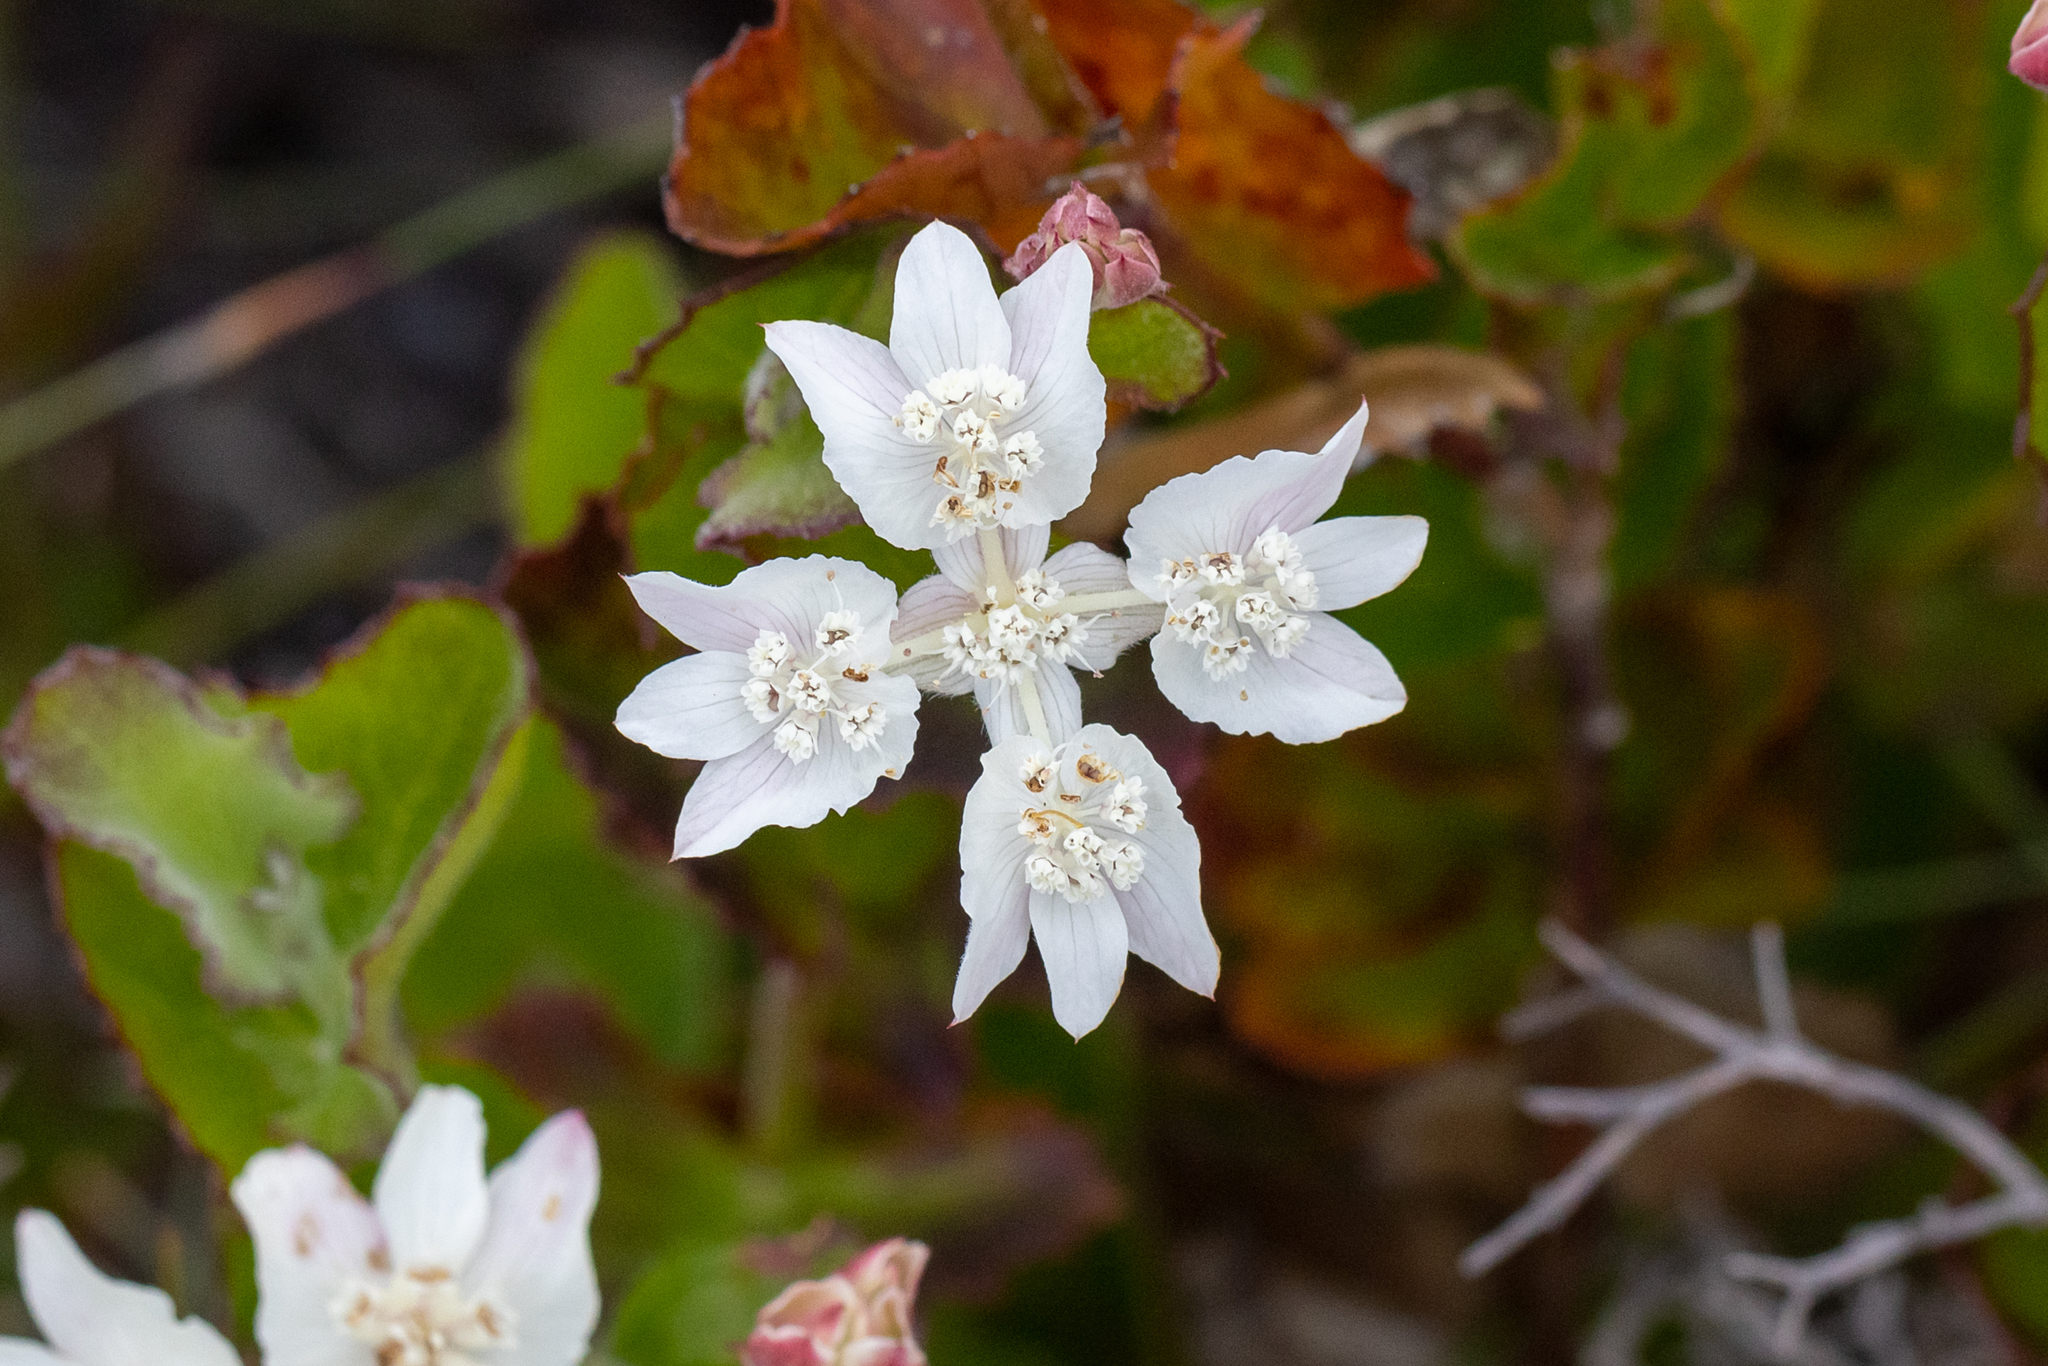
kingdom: Plantae
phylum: Tracheophyta
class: Magnoliopsida
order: Apiales
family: Apiaceae
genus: Xanthosia
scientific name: Xanthosia rotundifolia
